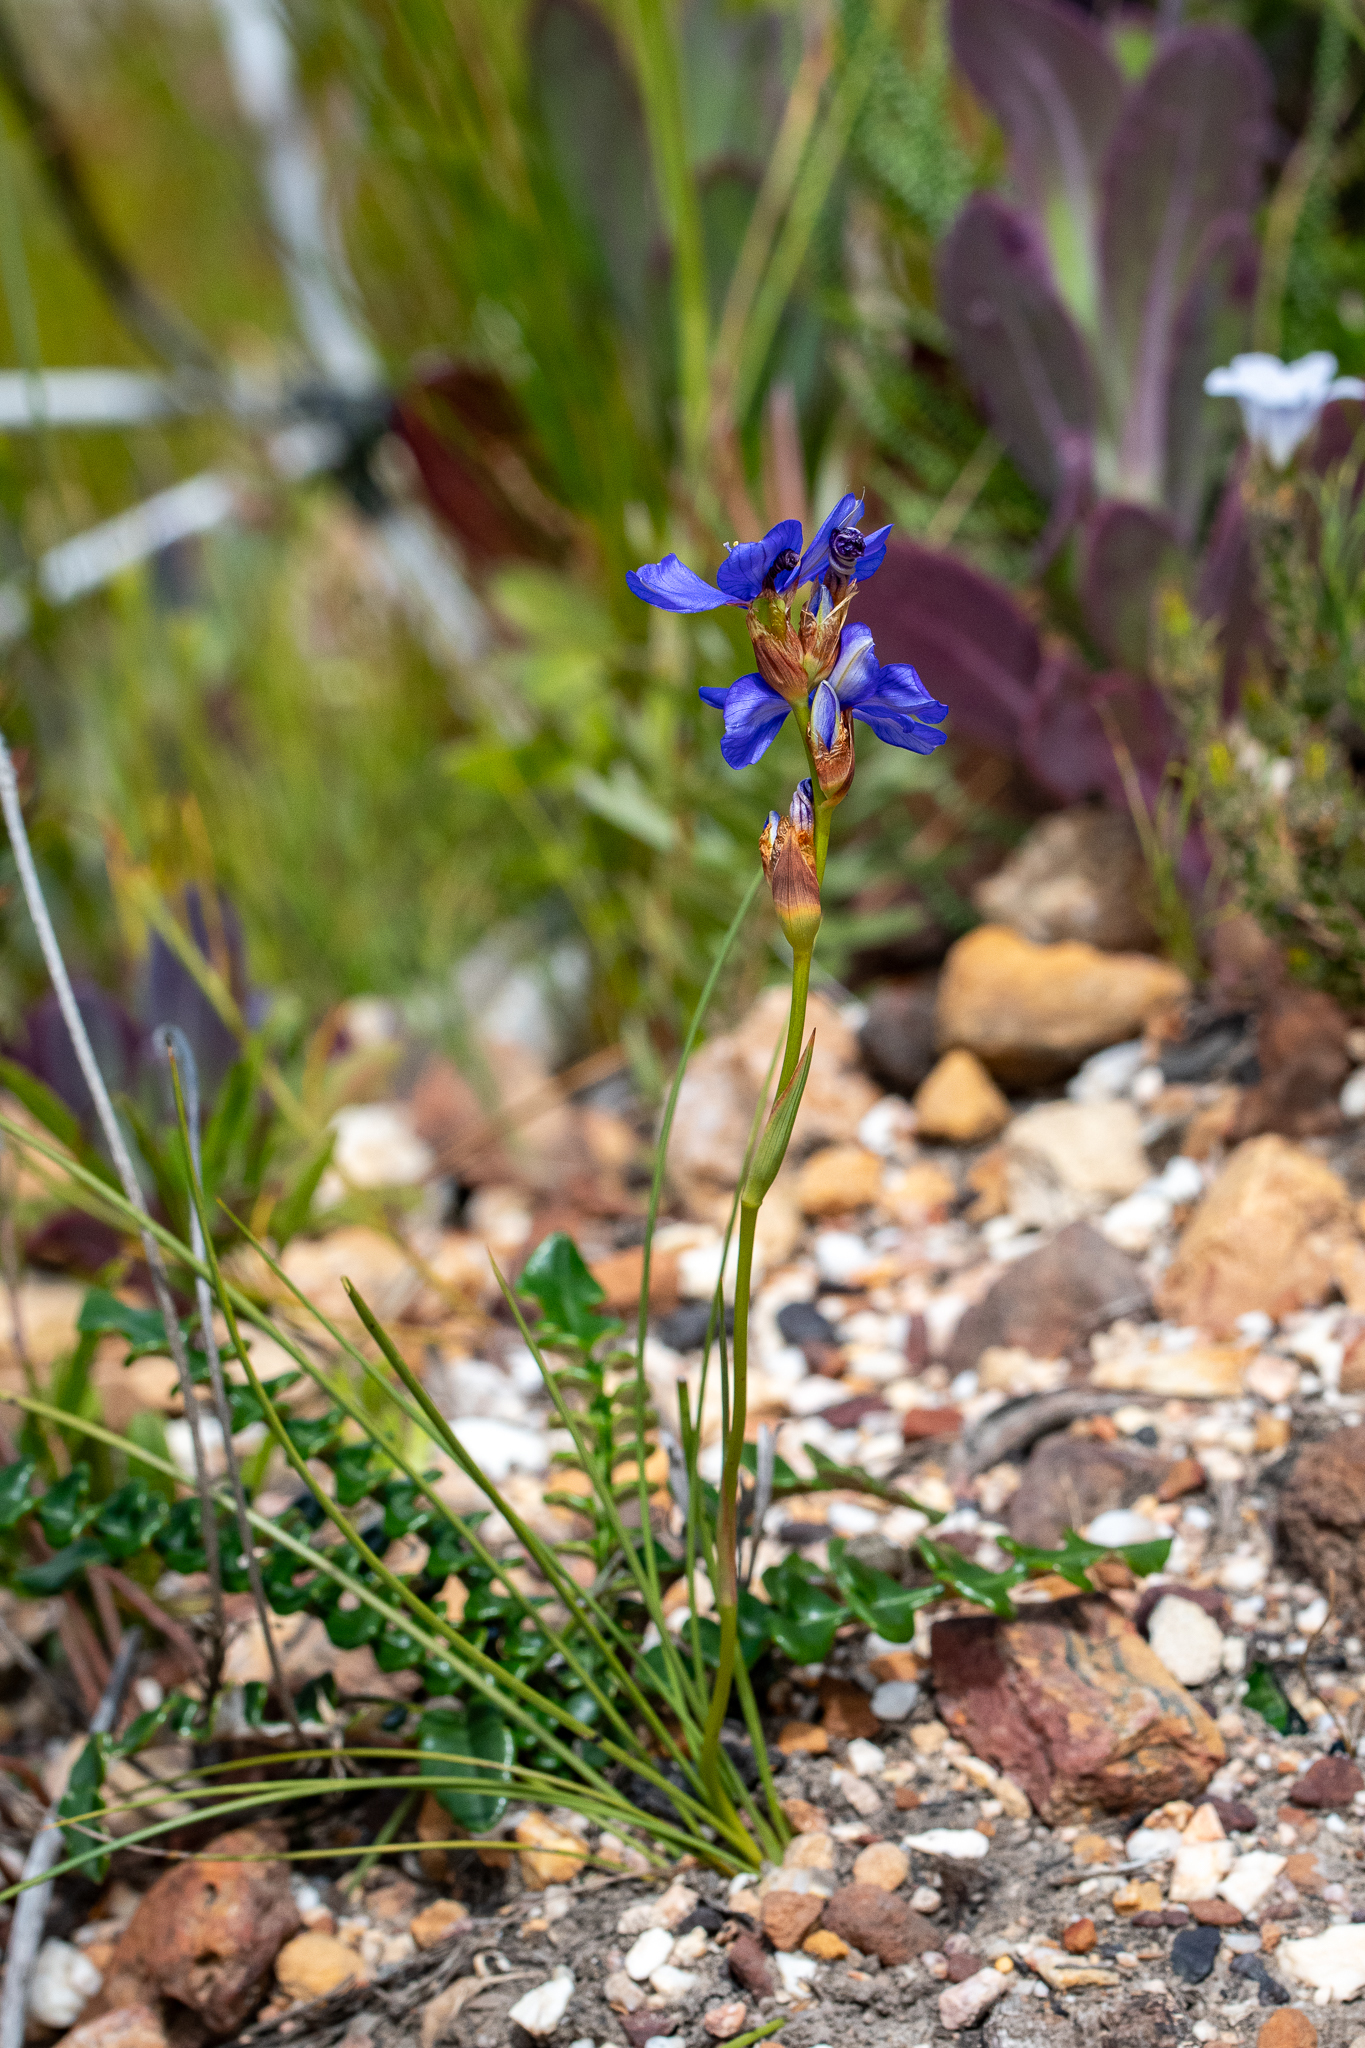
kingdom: Plantae
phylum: Tracheophyta
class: Liliopsida
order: Asparagales
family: Iridaceae
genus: Aristea
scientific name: Aristea juncifolia
